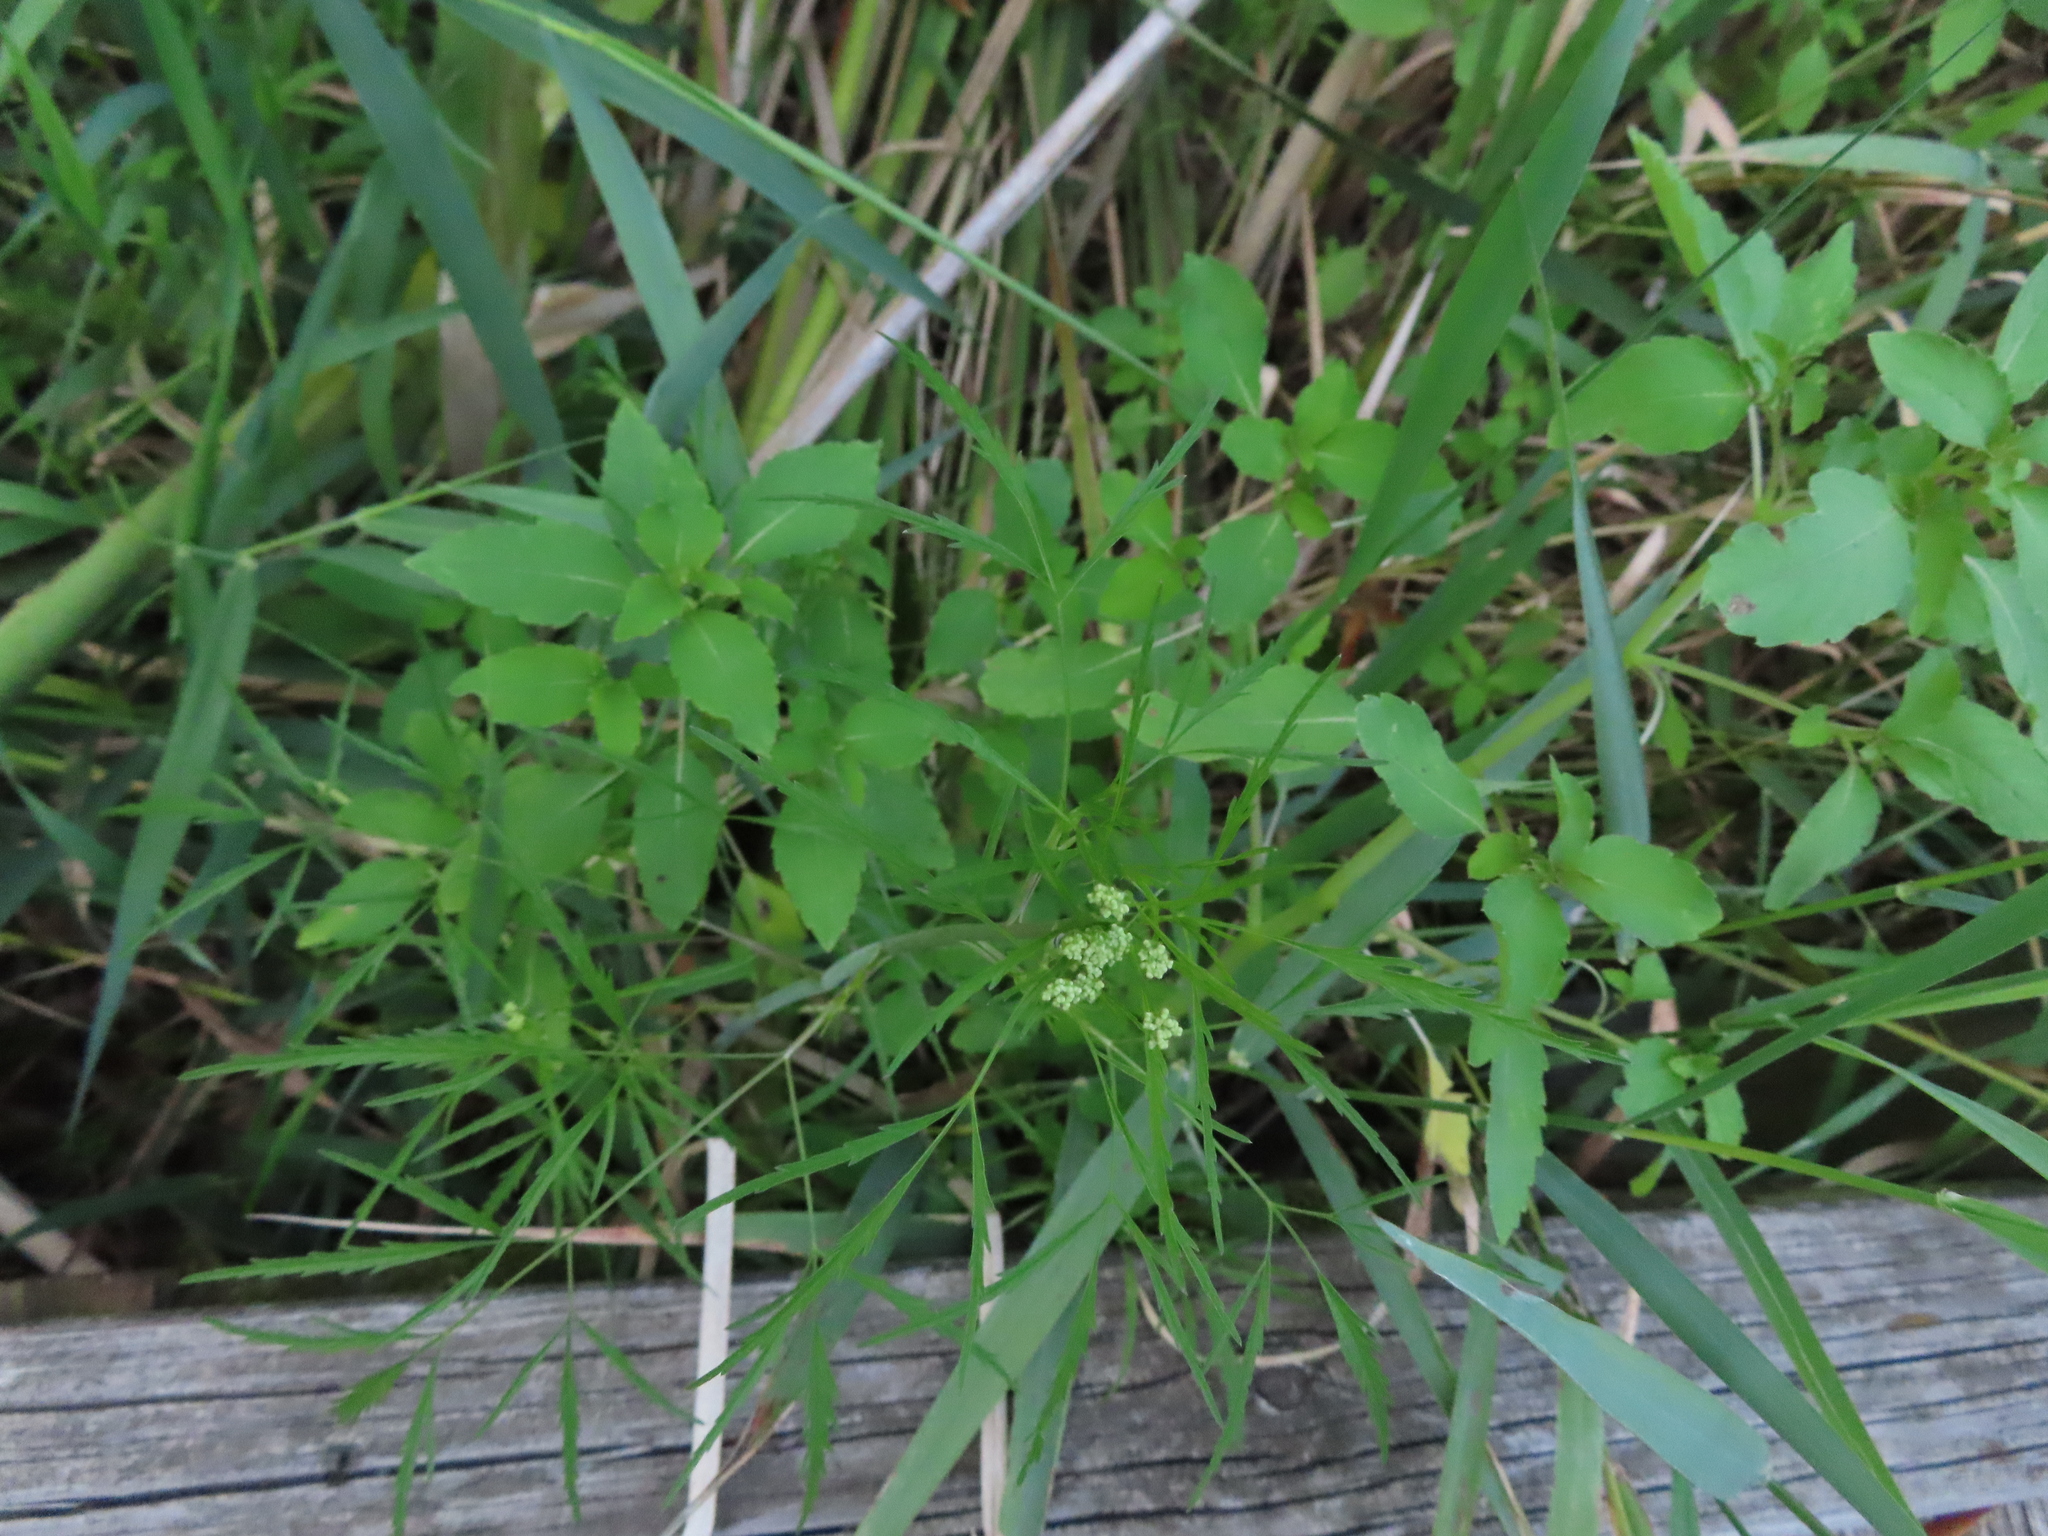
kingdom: Plantae
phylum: Tracheophyta
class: Magnoliopsida
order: Apiales
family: Apiaceae
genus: Cicuta
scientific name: Cicuta bulbifera
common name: Bulb-bearing water-hemlock
